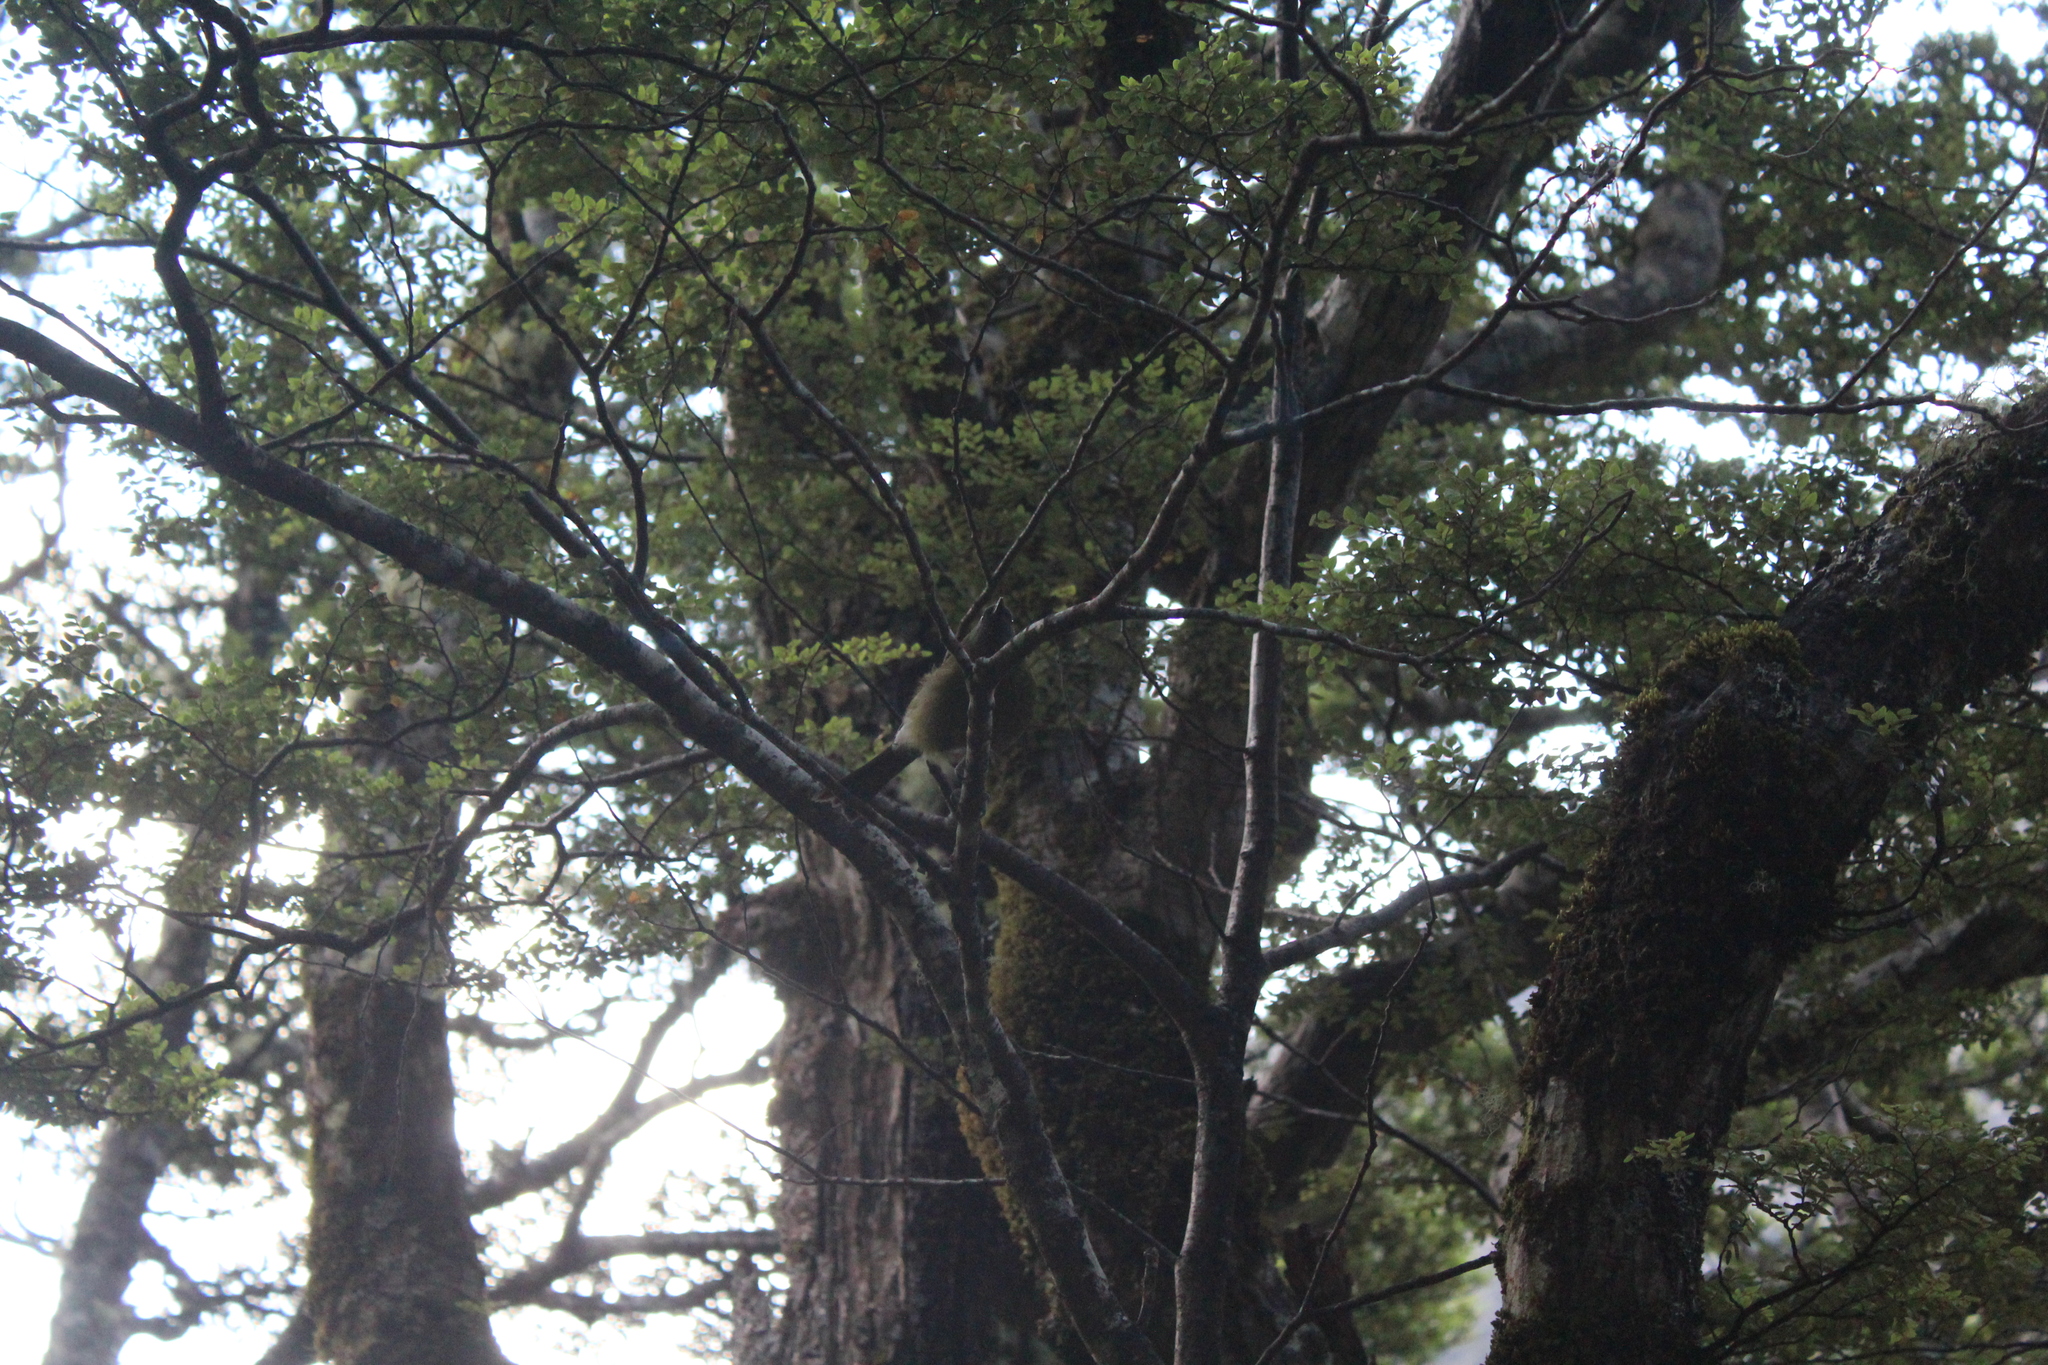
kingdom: Animalia
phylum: Chordata
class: Aves
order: Passeriformes
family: Meliphagidae
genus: Anthornis
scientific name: Anthornis melanura
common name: New zealand bellbird
